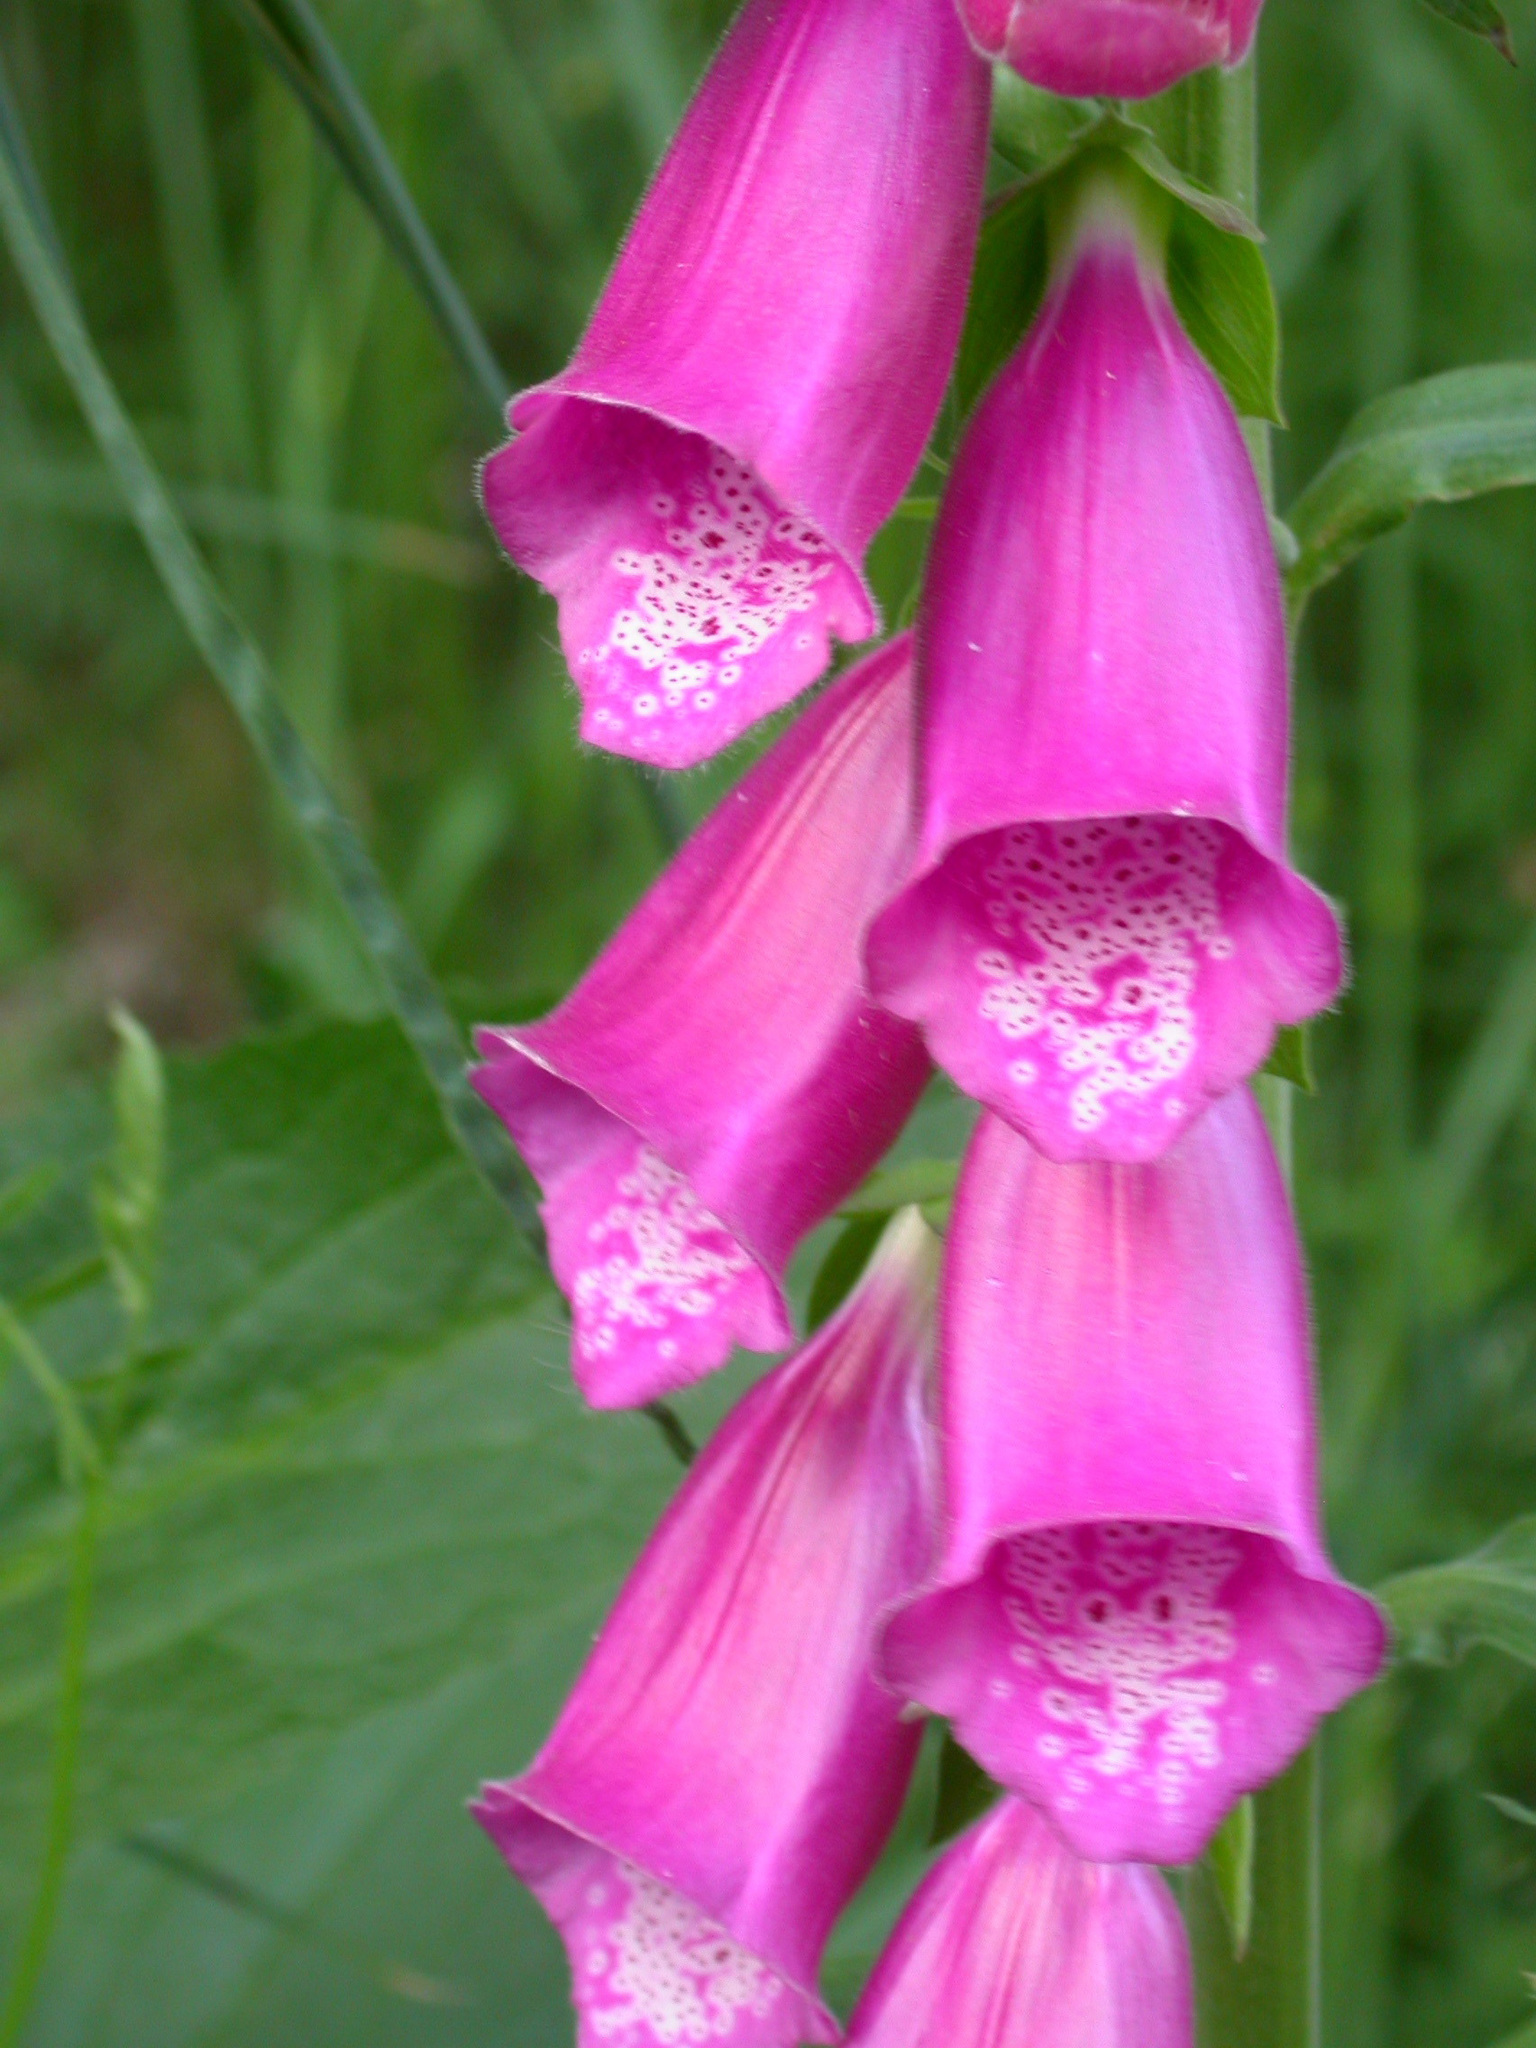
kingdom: Plantae
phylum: Tracheophyta
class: Magnoliopsida
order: Lamiales
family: Plantaginaceae
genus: Digitalis
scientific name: Digitalis purpurea
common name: Foxglove
